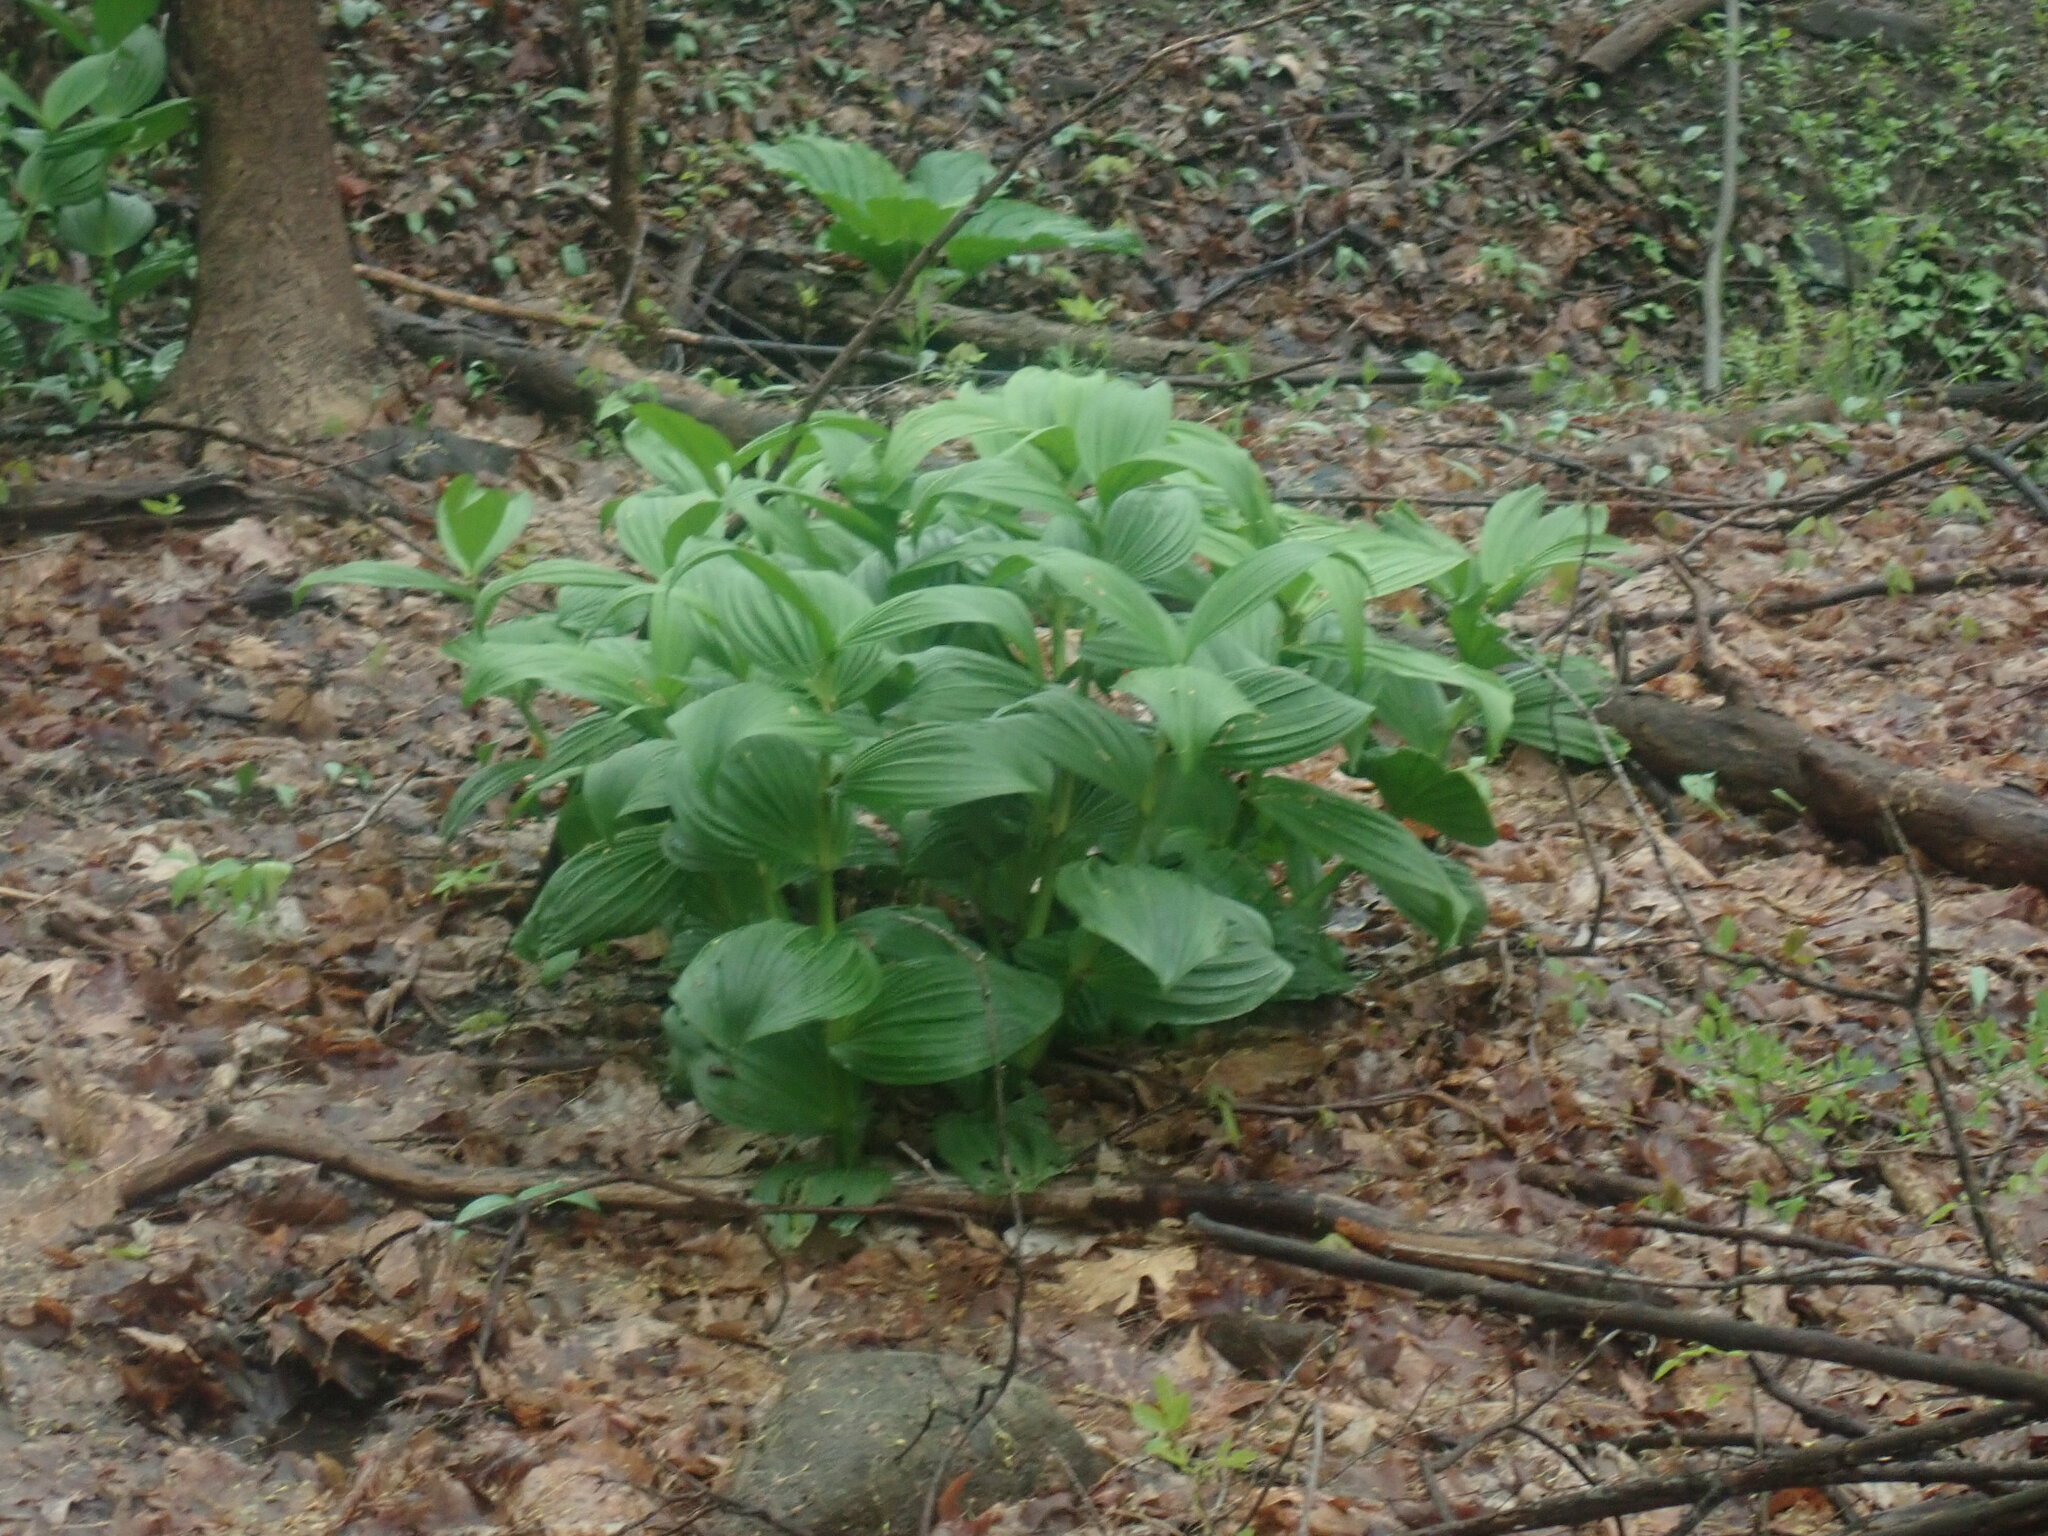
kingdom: Plantae
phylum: Tracheophyta
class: Liliopsida
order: Liliales
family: Melanthiaceae
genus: Veratrum
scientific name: Veratrum viride
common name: American false hellebore
